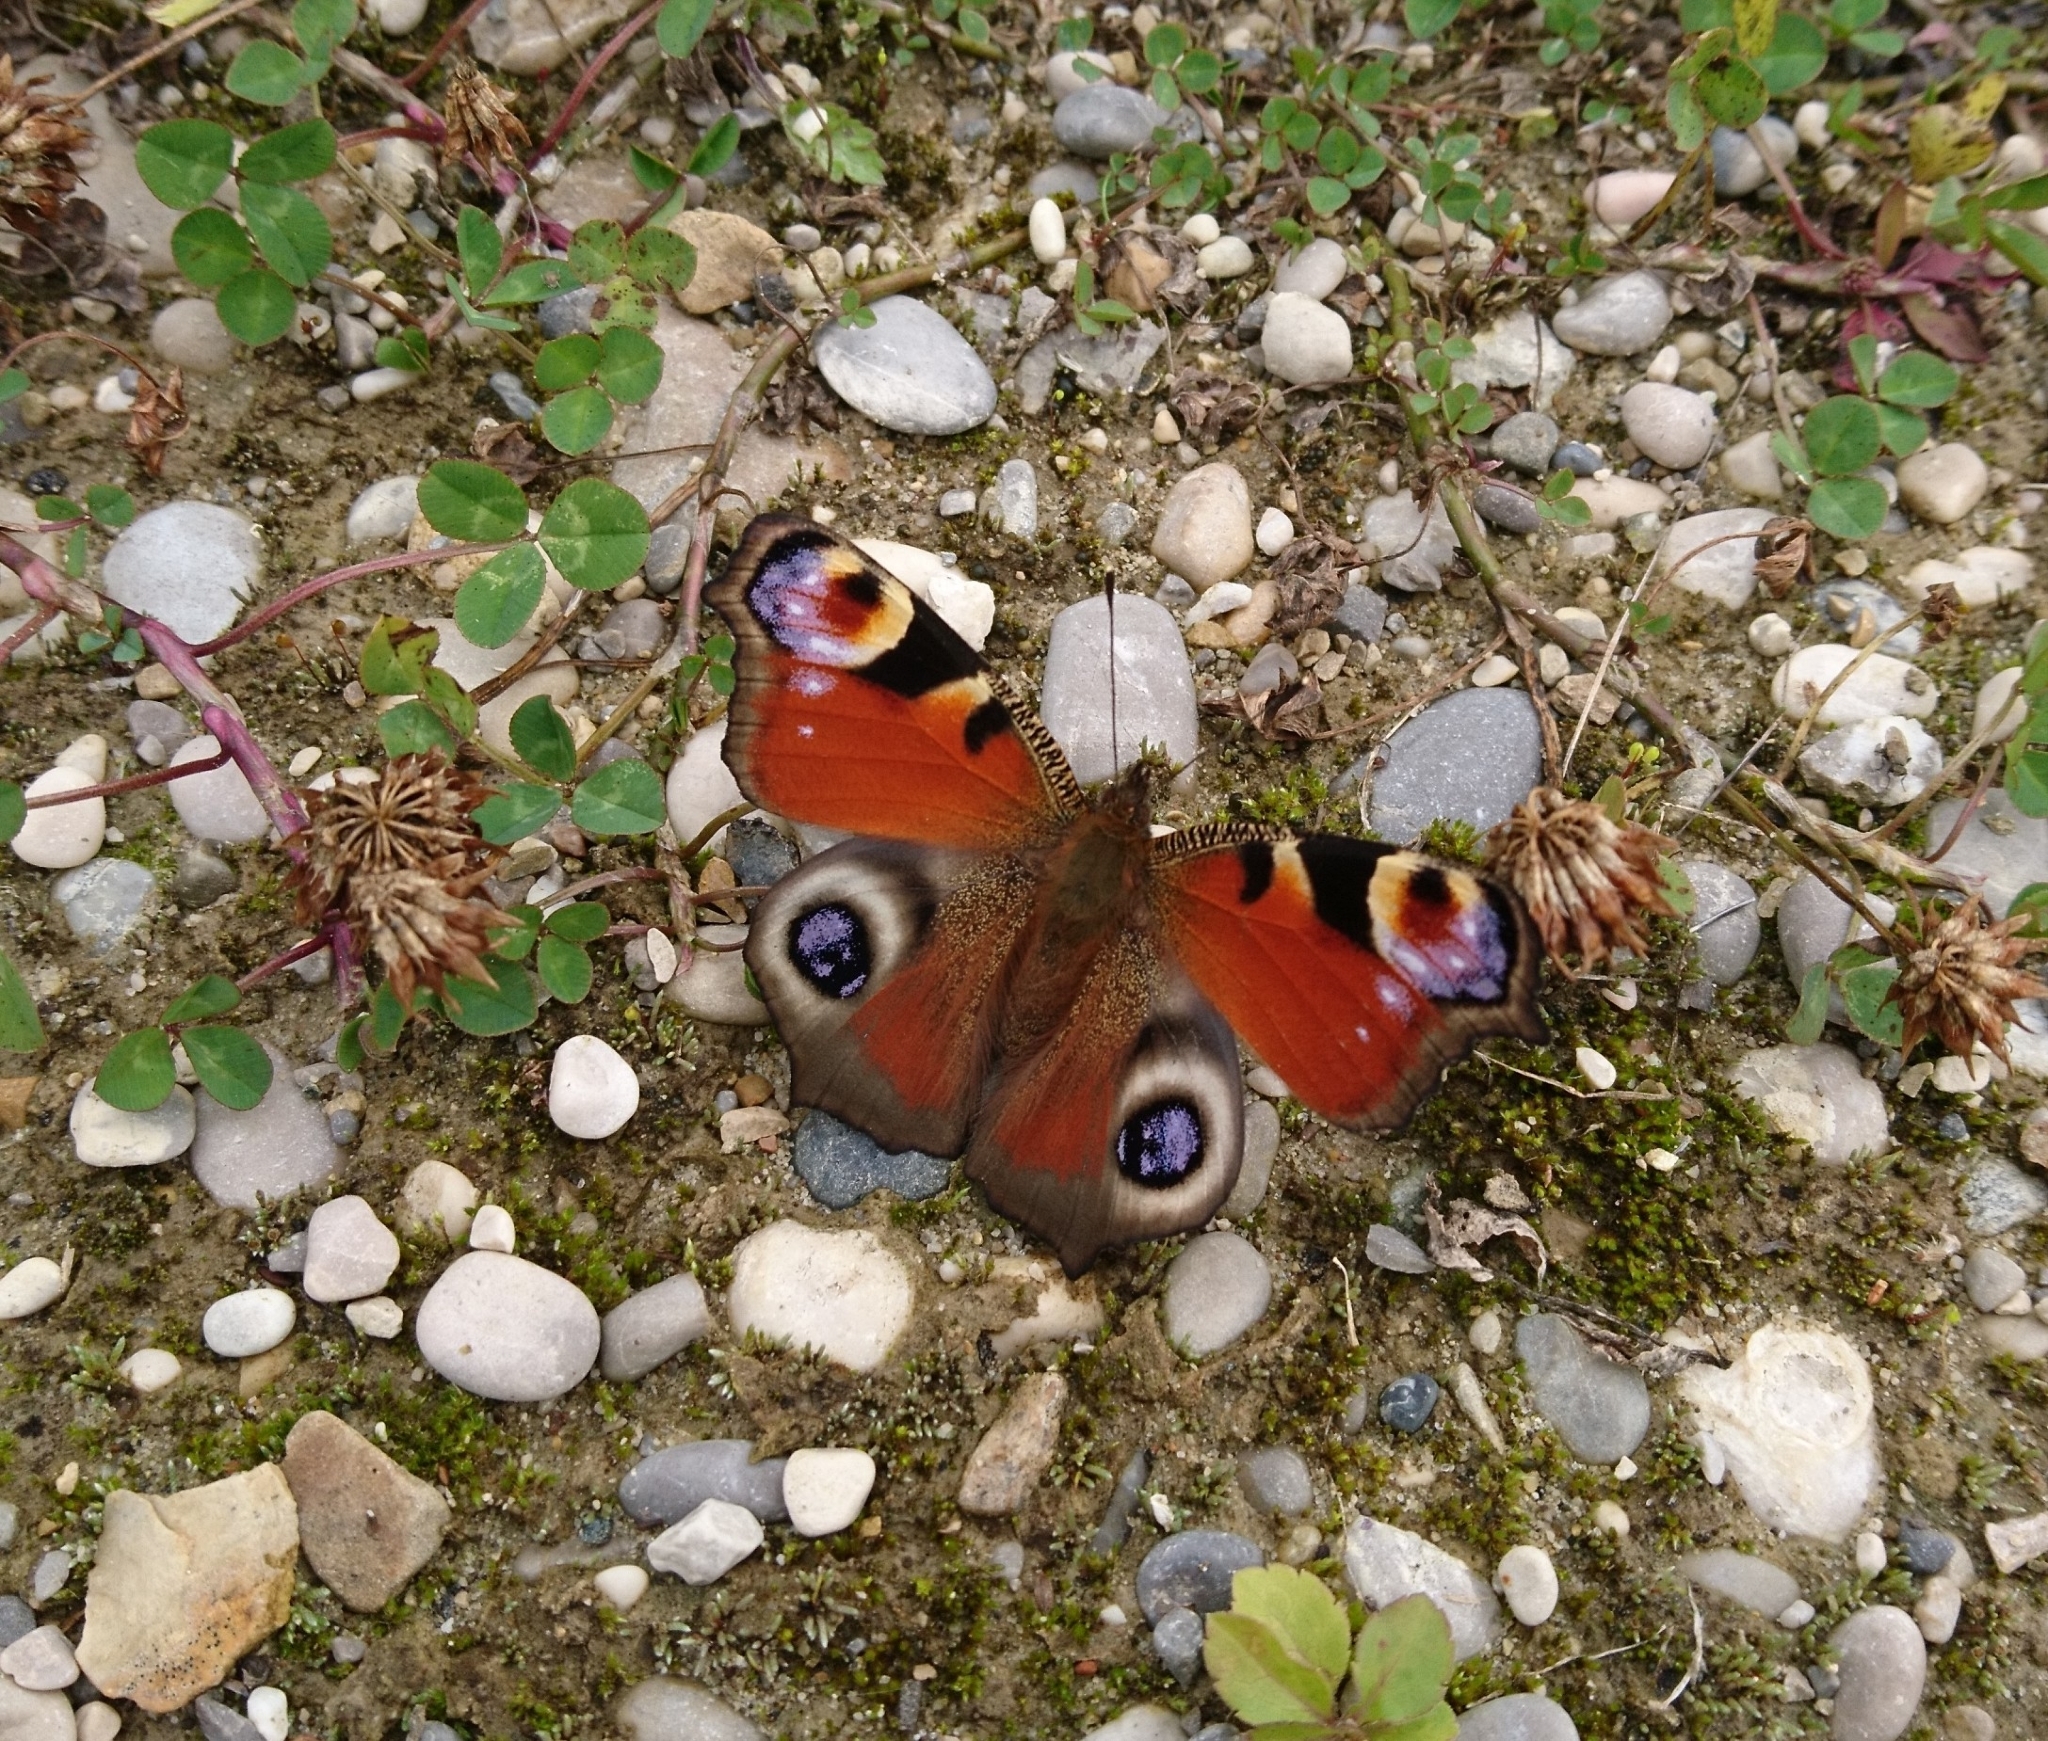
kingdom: Animalia
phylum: Arthropoda
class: Insecta
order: Lepidoptera
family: Nymphalidae
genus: Aglais
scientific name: Aglais io
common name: Peacock
